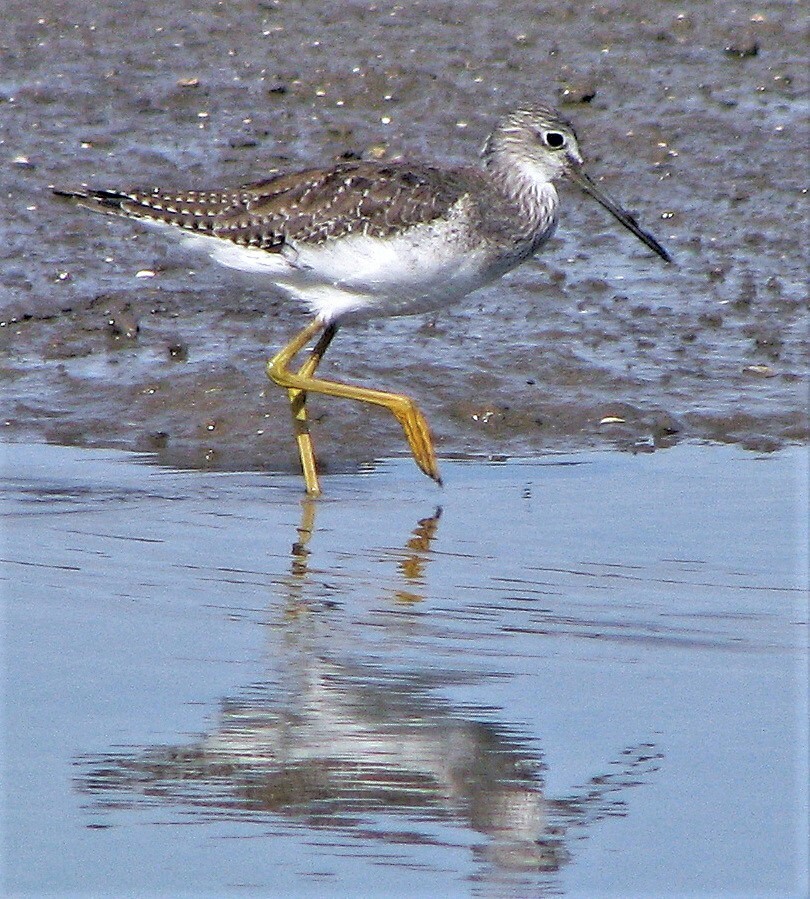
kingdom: Animalia
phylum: Chordata
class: Aves
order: Charadriiformes
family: Scolopacidae
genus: Tringa
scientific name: Tringa melanoleuca
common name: Greater yellowlegs
